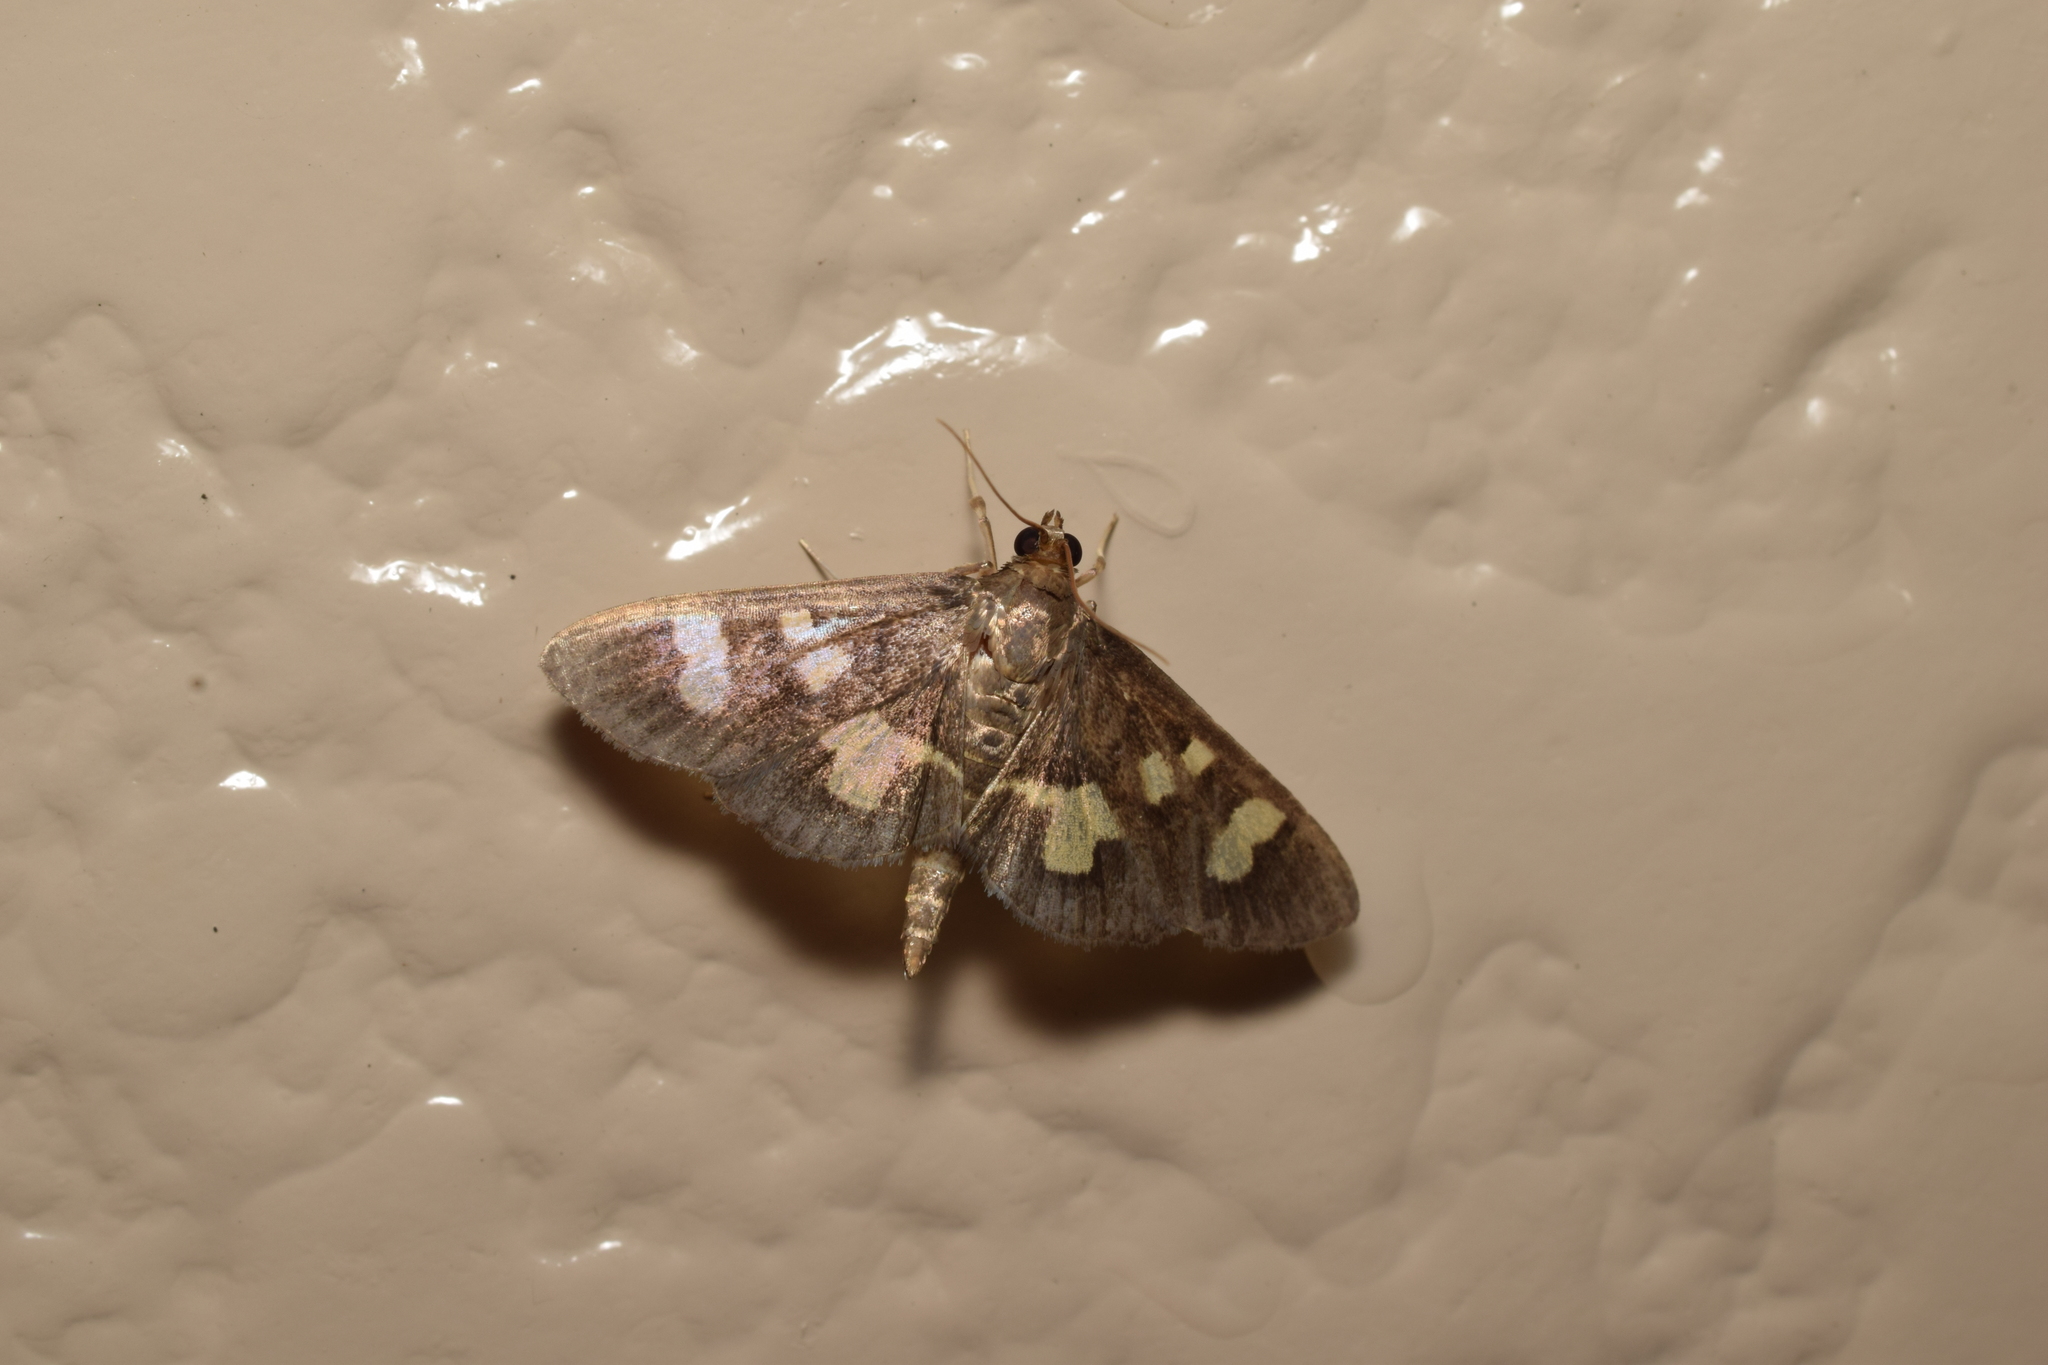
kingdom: Animalia
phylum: Arthropoda
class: Insecta
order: Lepidoptera
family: Crambidae
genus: Uresiphita
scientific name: Uresiphita tricolor
